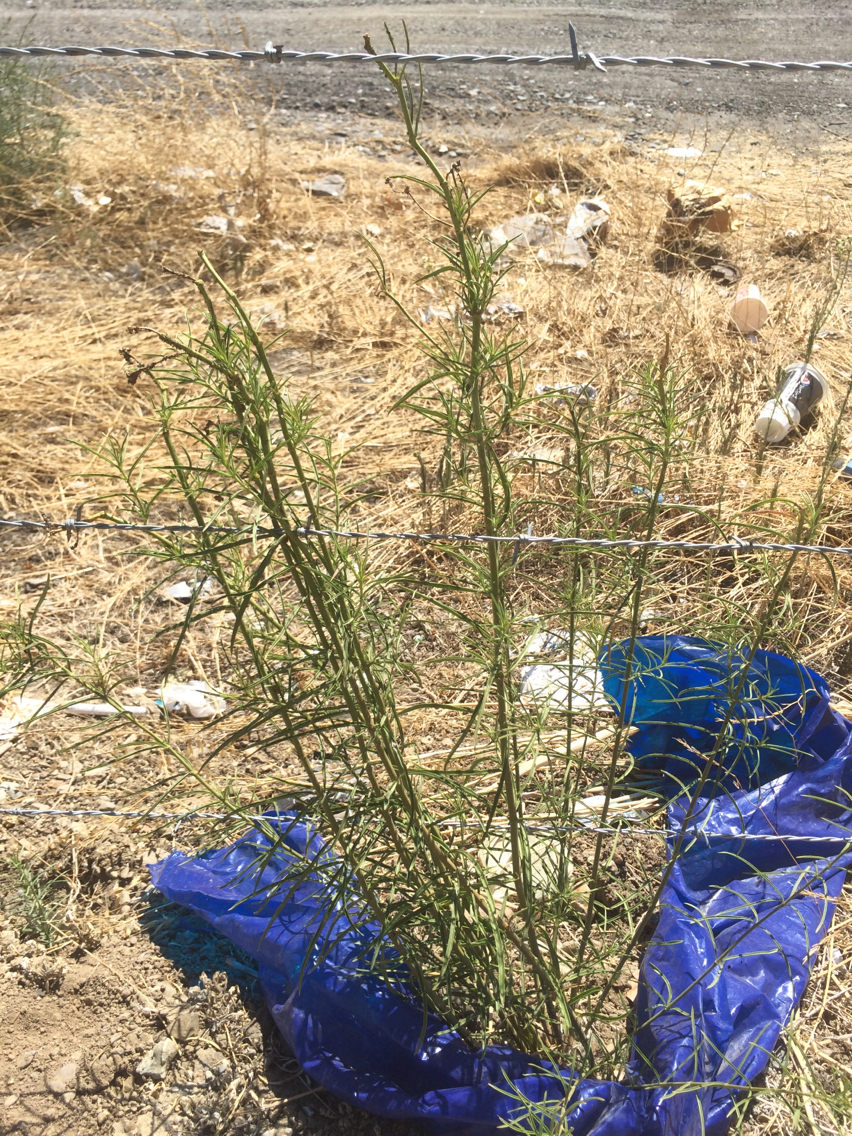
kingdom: Plantae
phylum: Tracheophyta
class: Magnoliopsida
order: Gentianales
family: Apocynaceae
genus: Asclepias
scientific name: Asclepias fascicularis
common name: Mexican milkweed
